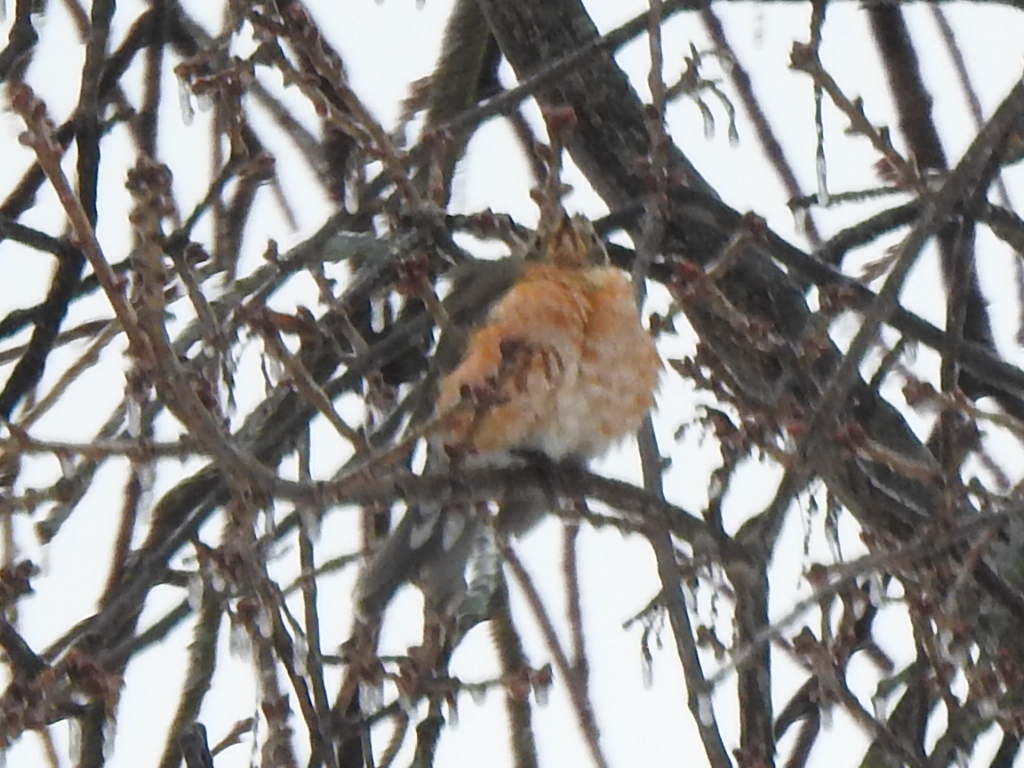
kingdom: Animalia
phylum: Chordata
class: Aves
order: Passeriformes
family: Turdidae
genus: Turdus
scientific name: Turdus migratorius
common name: American robin
